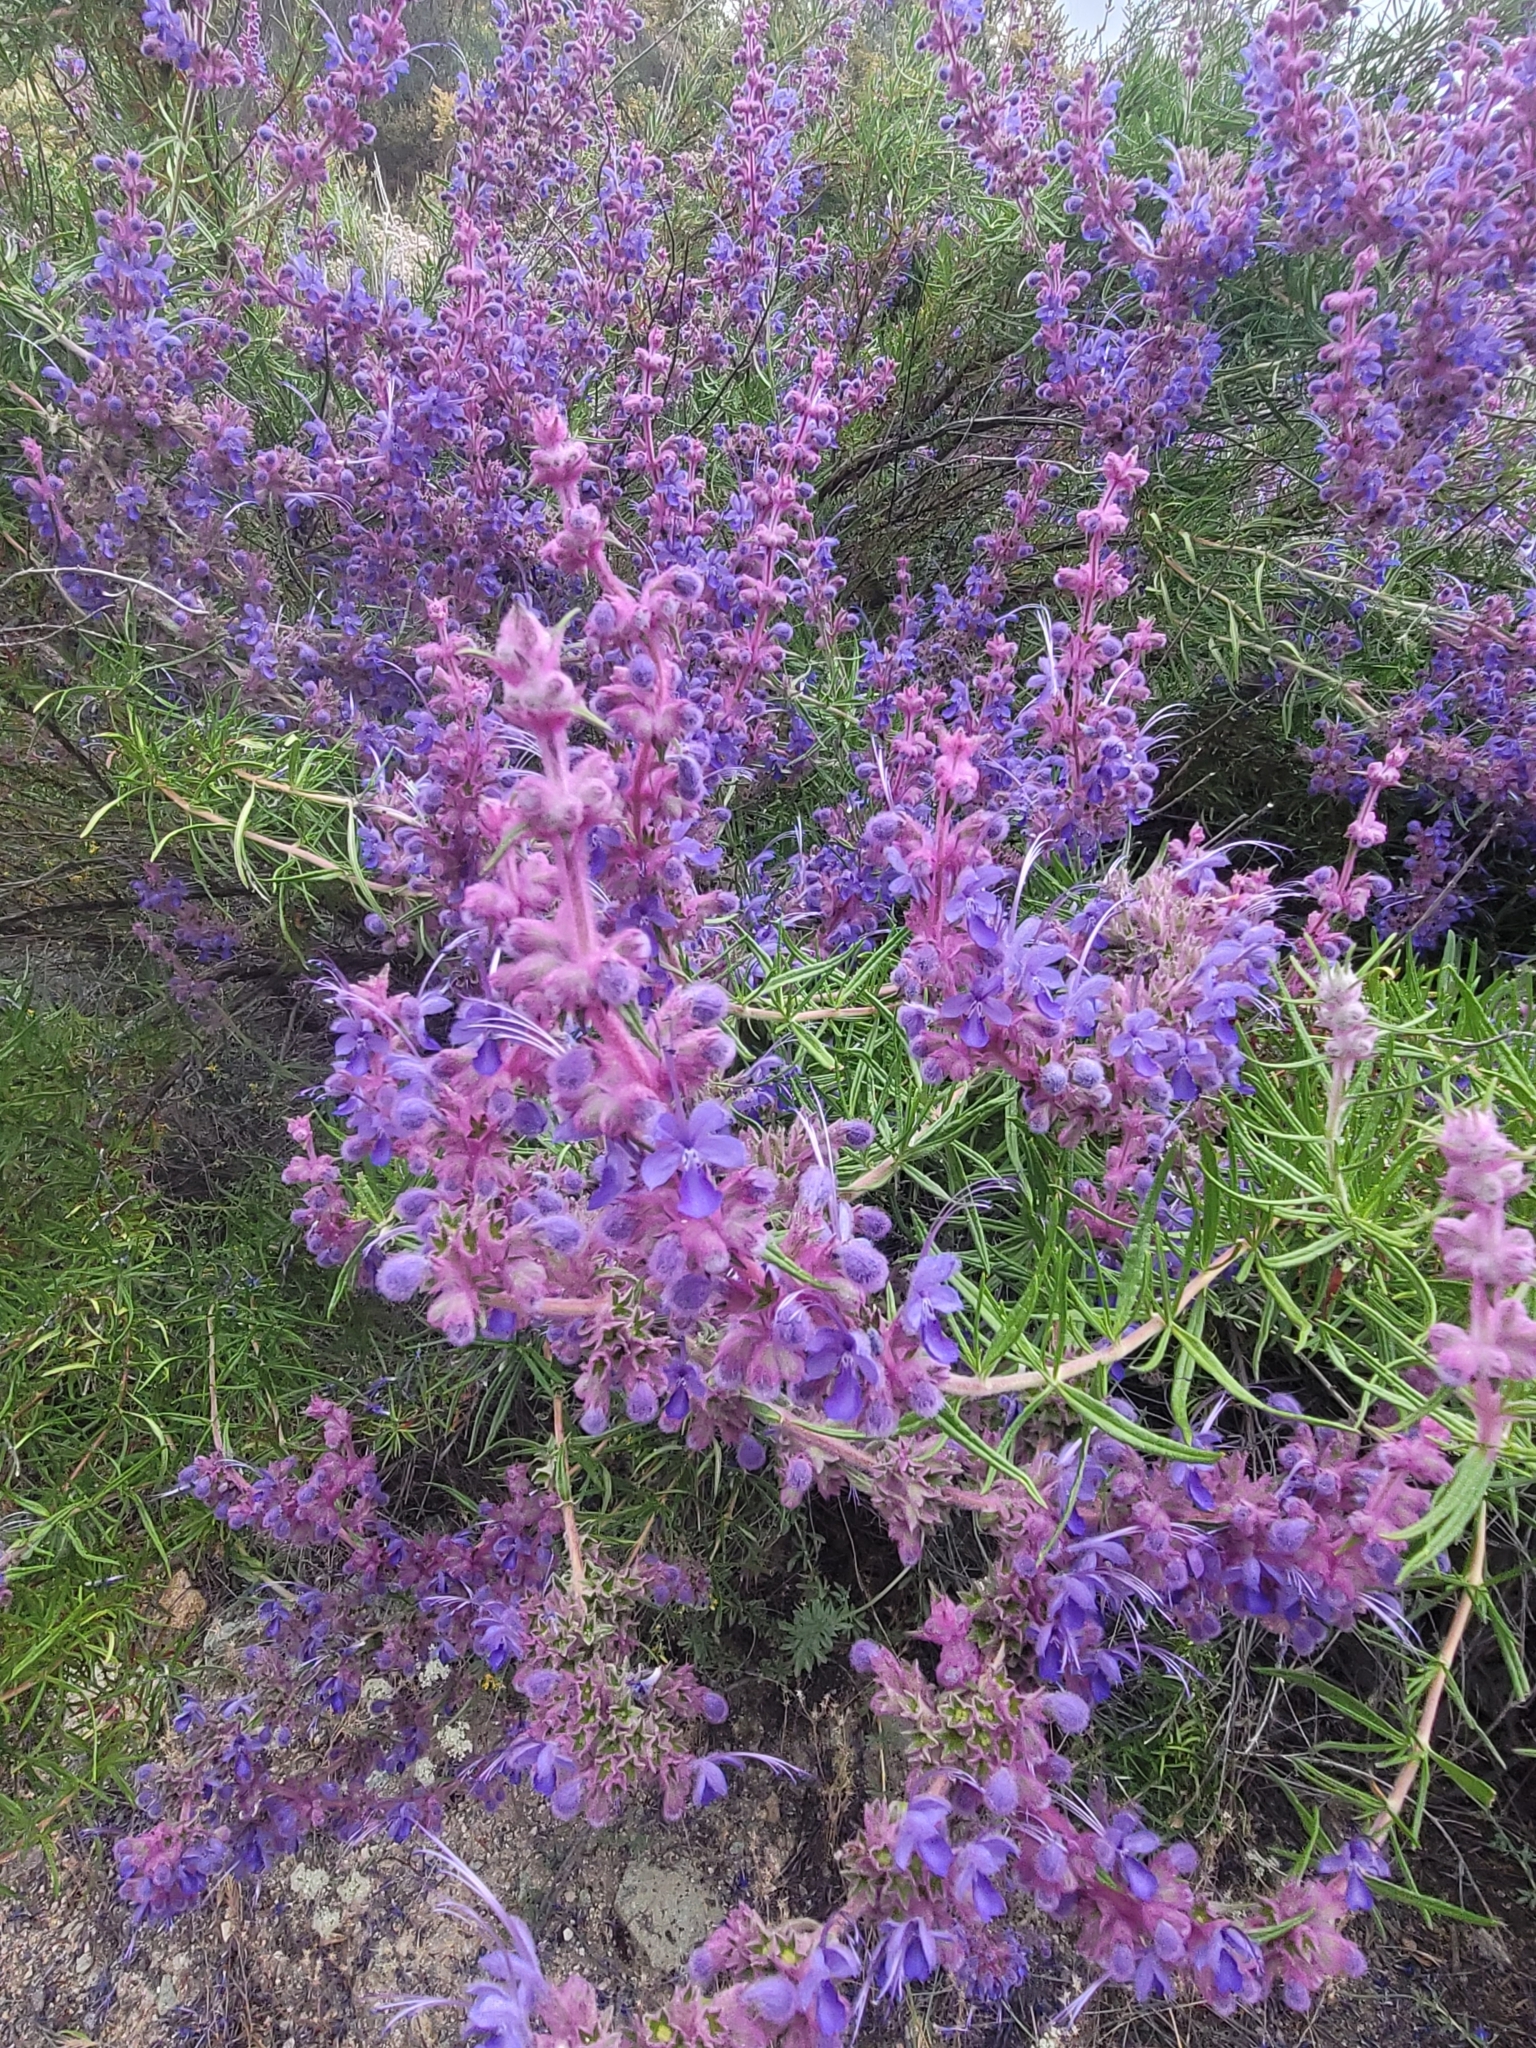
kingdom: Plantae
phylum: Tracheophyta
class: Magnoliopsida
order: Lamiales
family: Lamiaceae
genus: Trichostema
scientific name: Trichostema lanatum
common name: Woolly bluecurls
